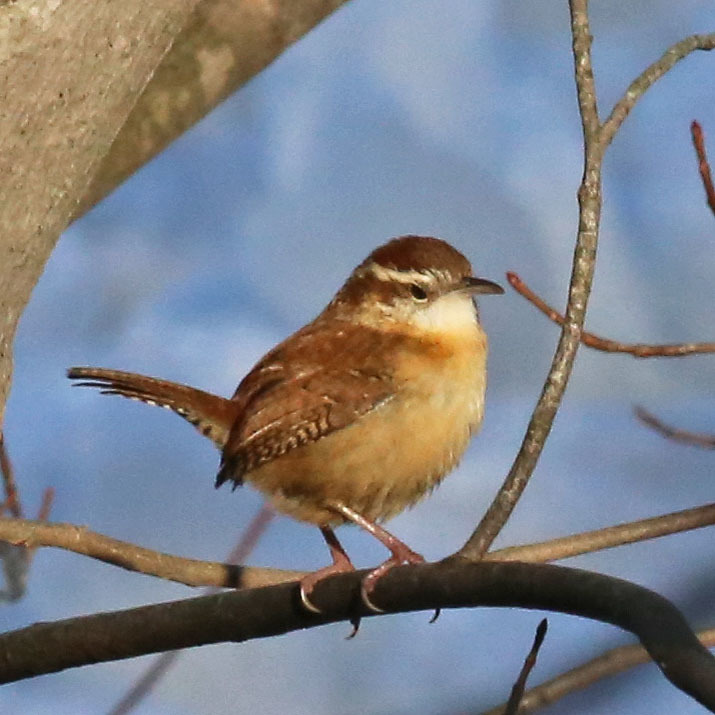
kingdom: Animalia
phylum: Chordata
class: Aves
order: Passeriformes
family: Troglodytidae
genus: Thryothorus
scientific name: Thryothorus ludovicianus
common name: Carolina wren
